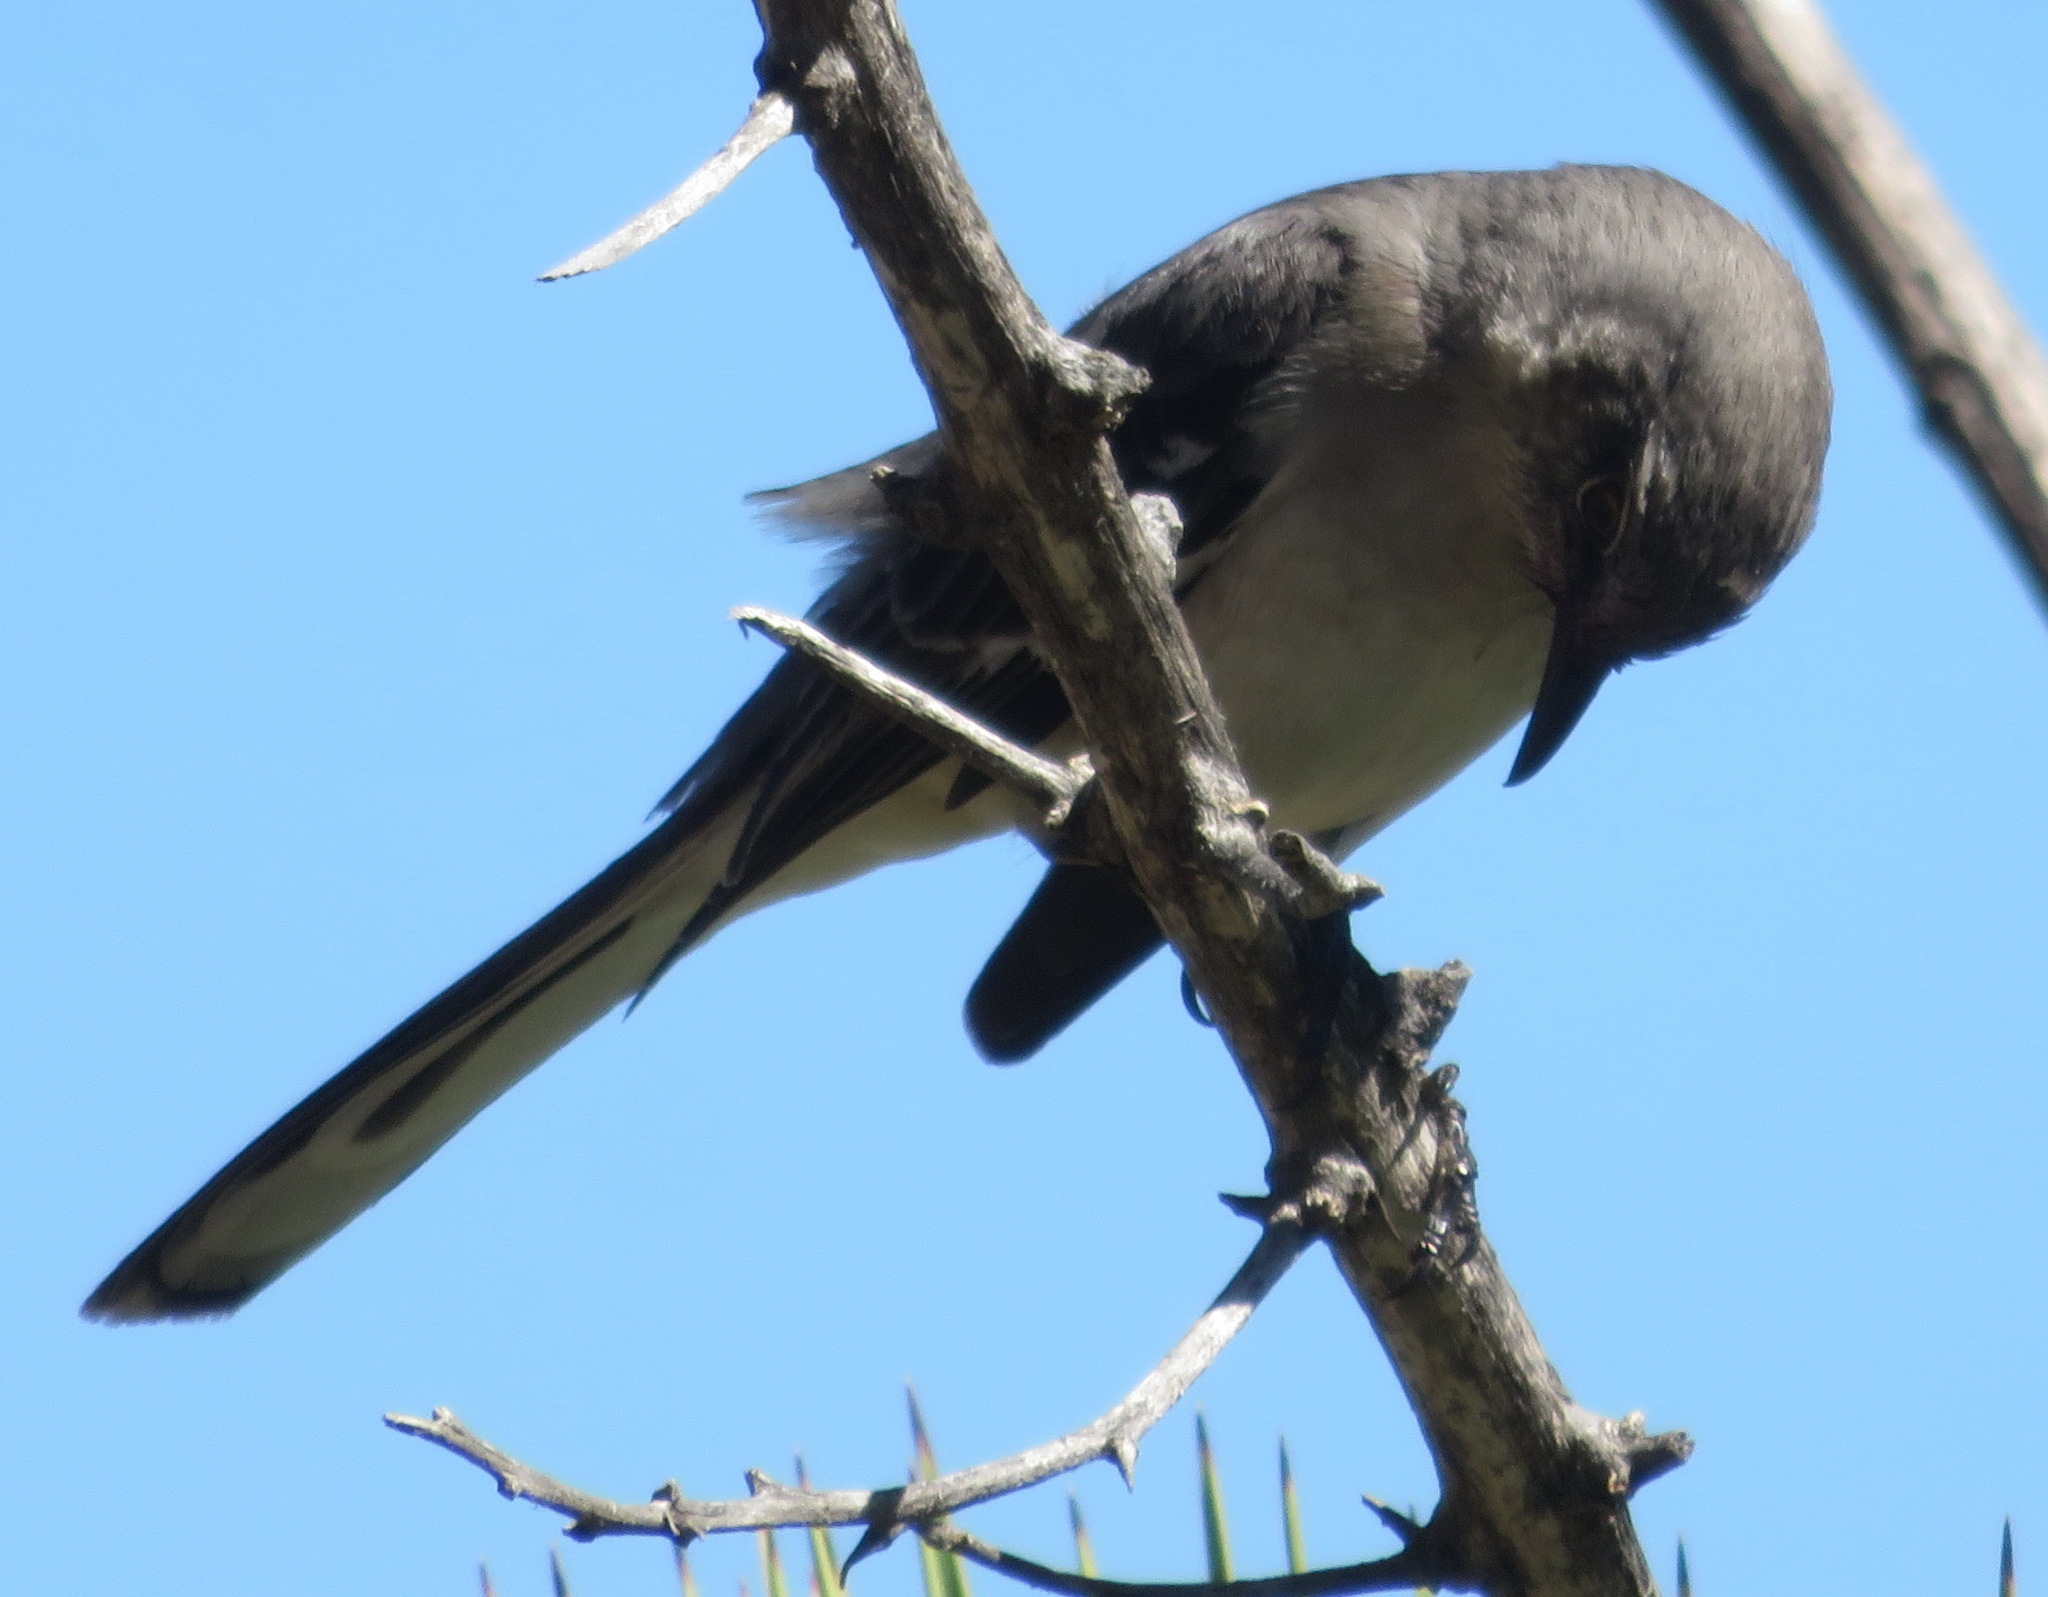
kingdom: Animalia
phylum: Chordata
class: Aves
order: Passeriformes
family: Mimidae
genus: Mimus
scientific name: Mimus polyglottos
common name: Northern mockingbird
